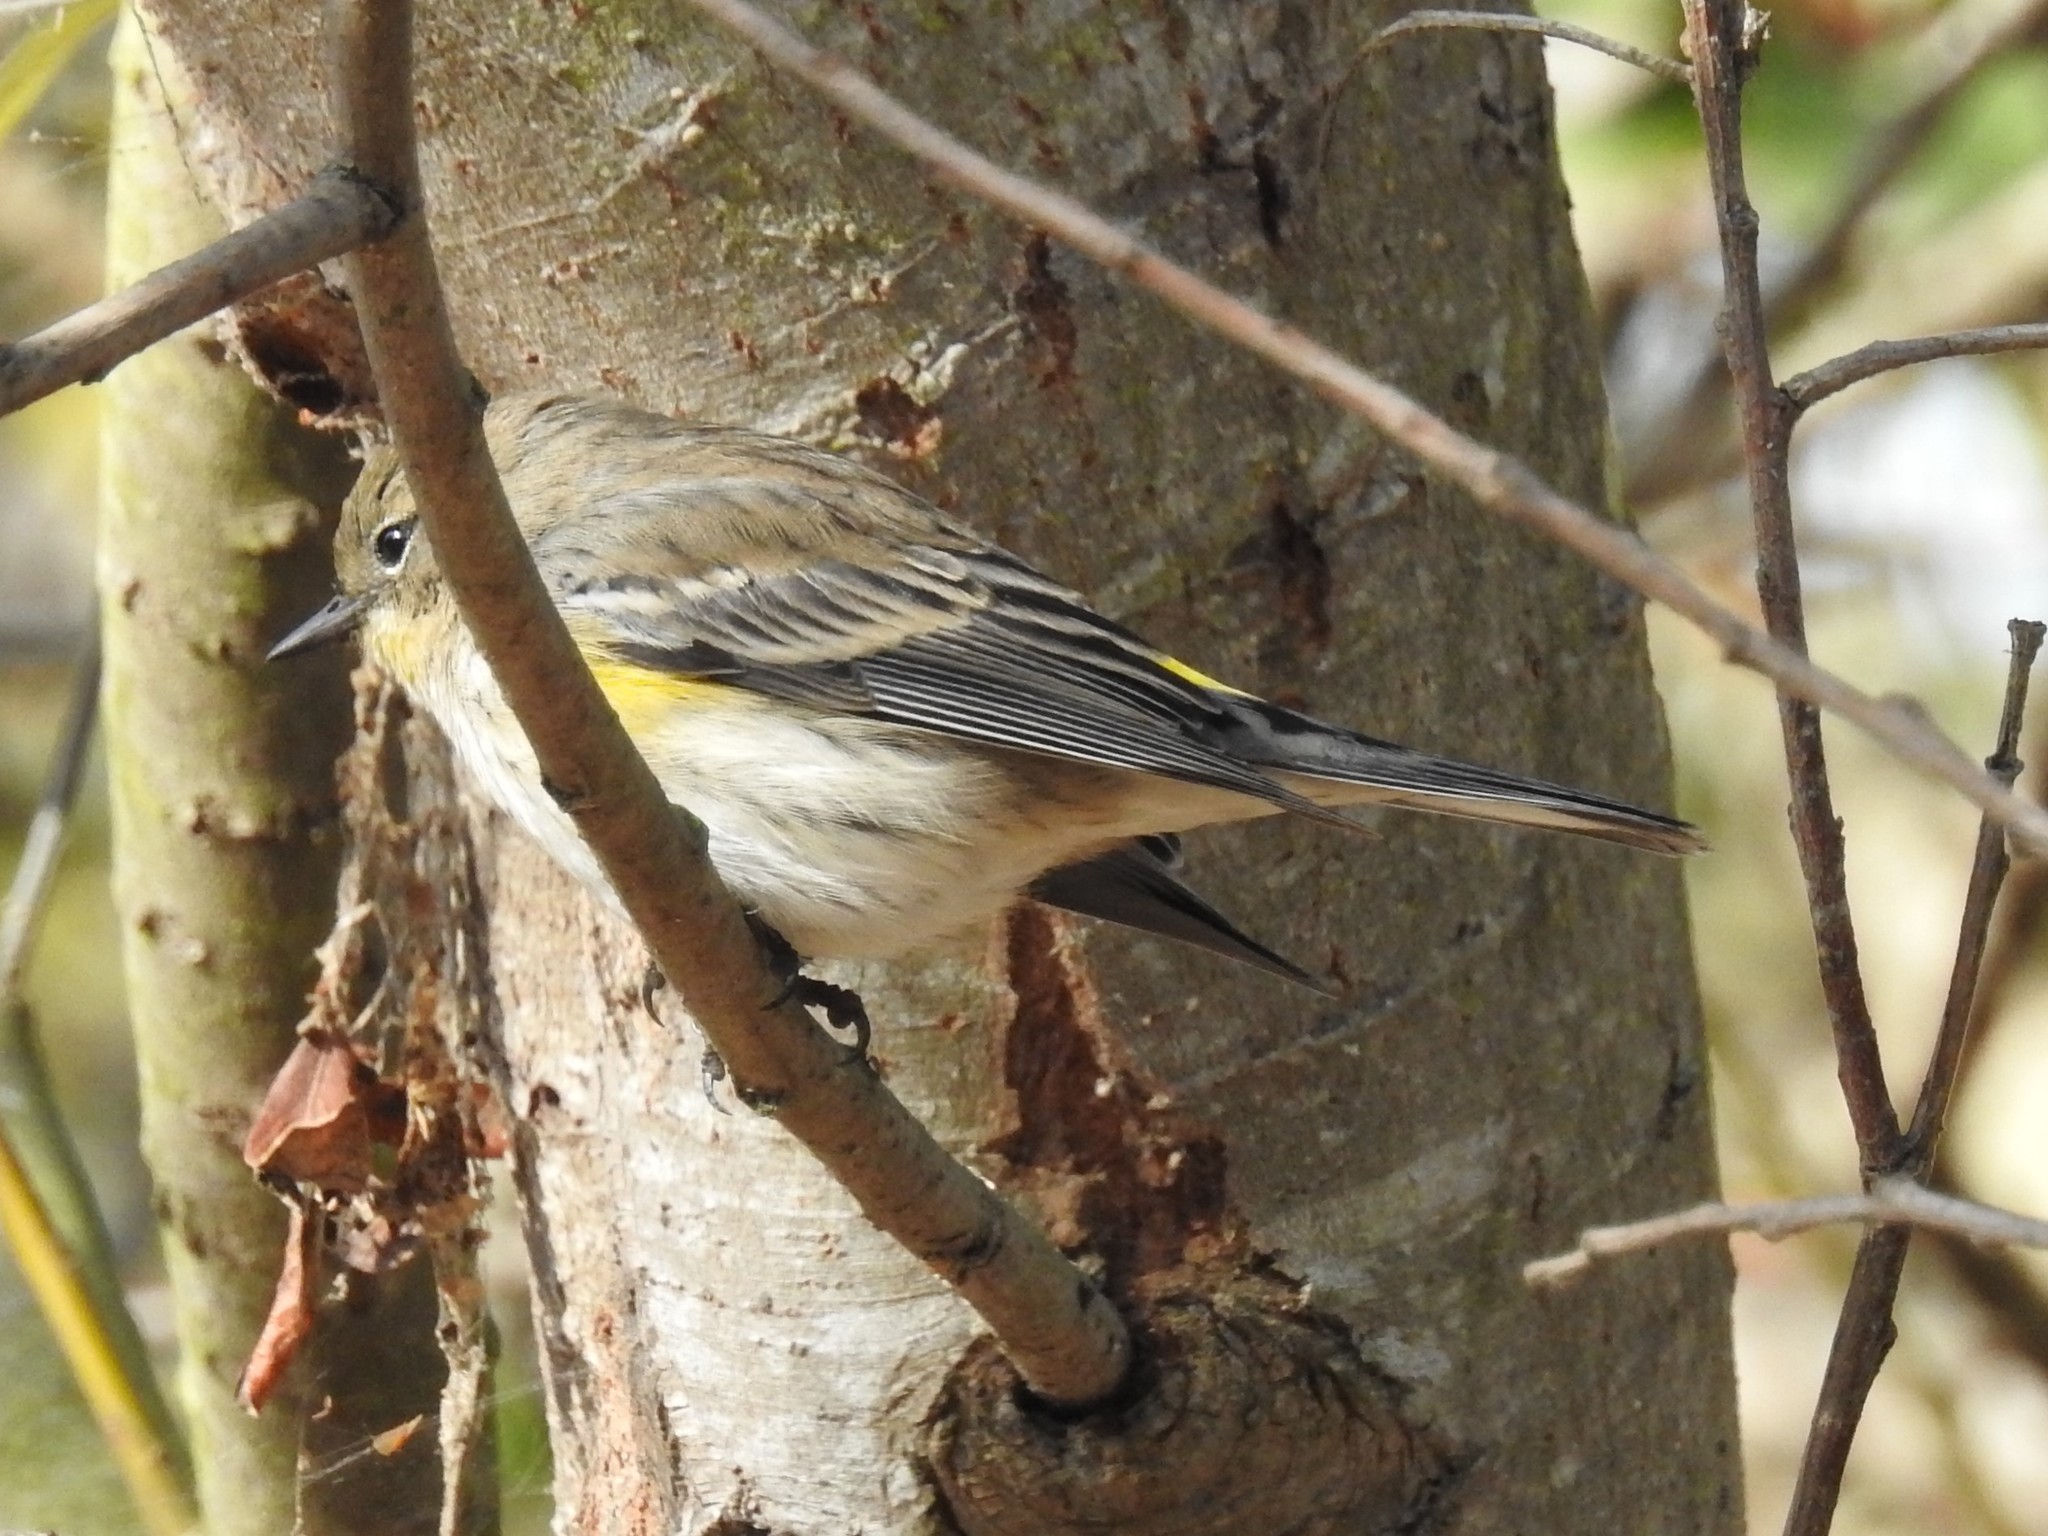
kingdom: Animalia
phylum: Chordata
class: Aves
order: Passeriformes
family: Parulidae
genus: Setophaga
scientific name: Setophaga coronata
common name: Myrtle warbler
